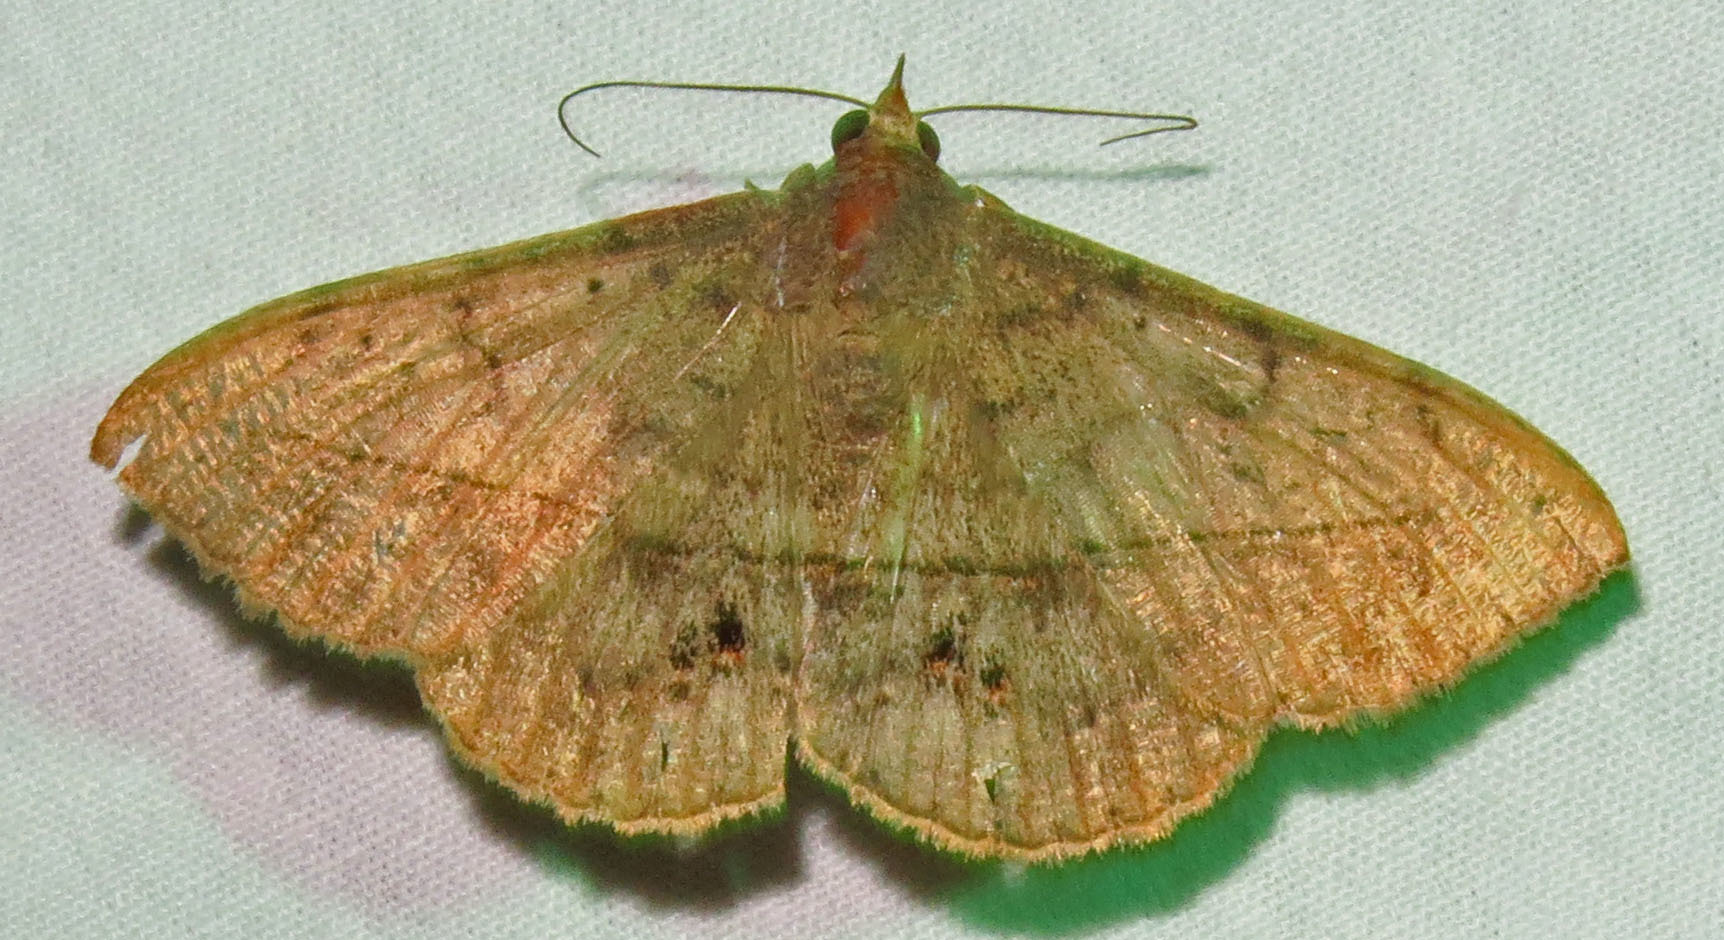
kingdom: Animalia
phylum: Arthropoda
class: Insecta
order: Lepidoptera
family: Erebidae
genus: Anticarsia
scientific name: Anticarsia gemmatalis
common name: Cutworm moth
